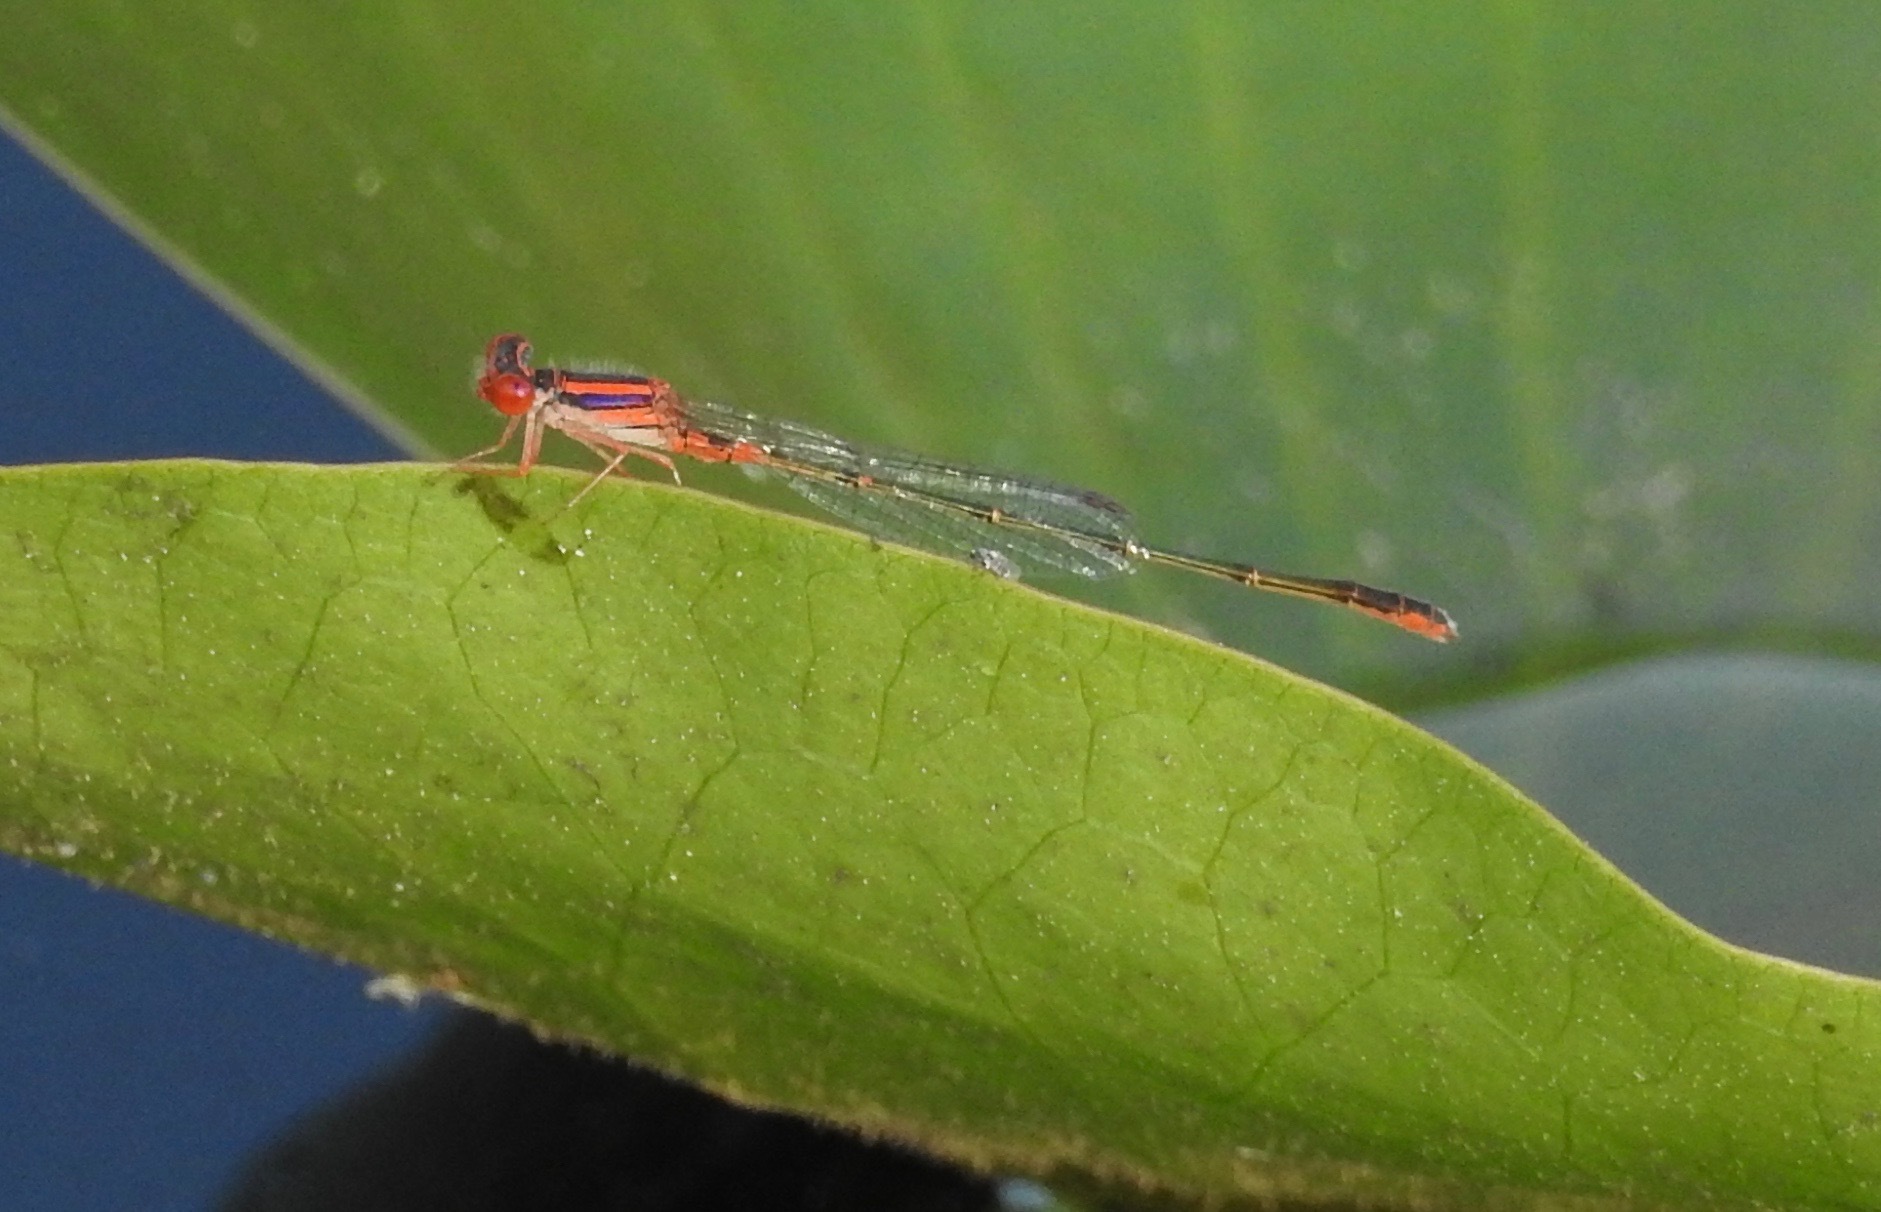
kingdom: Animalia
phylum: Arthropoda
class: Insecta
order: Odonata
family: Coenagrionidae
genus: Enallagma
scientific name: Enallagma concisum
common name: Cherry bluet
